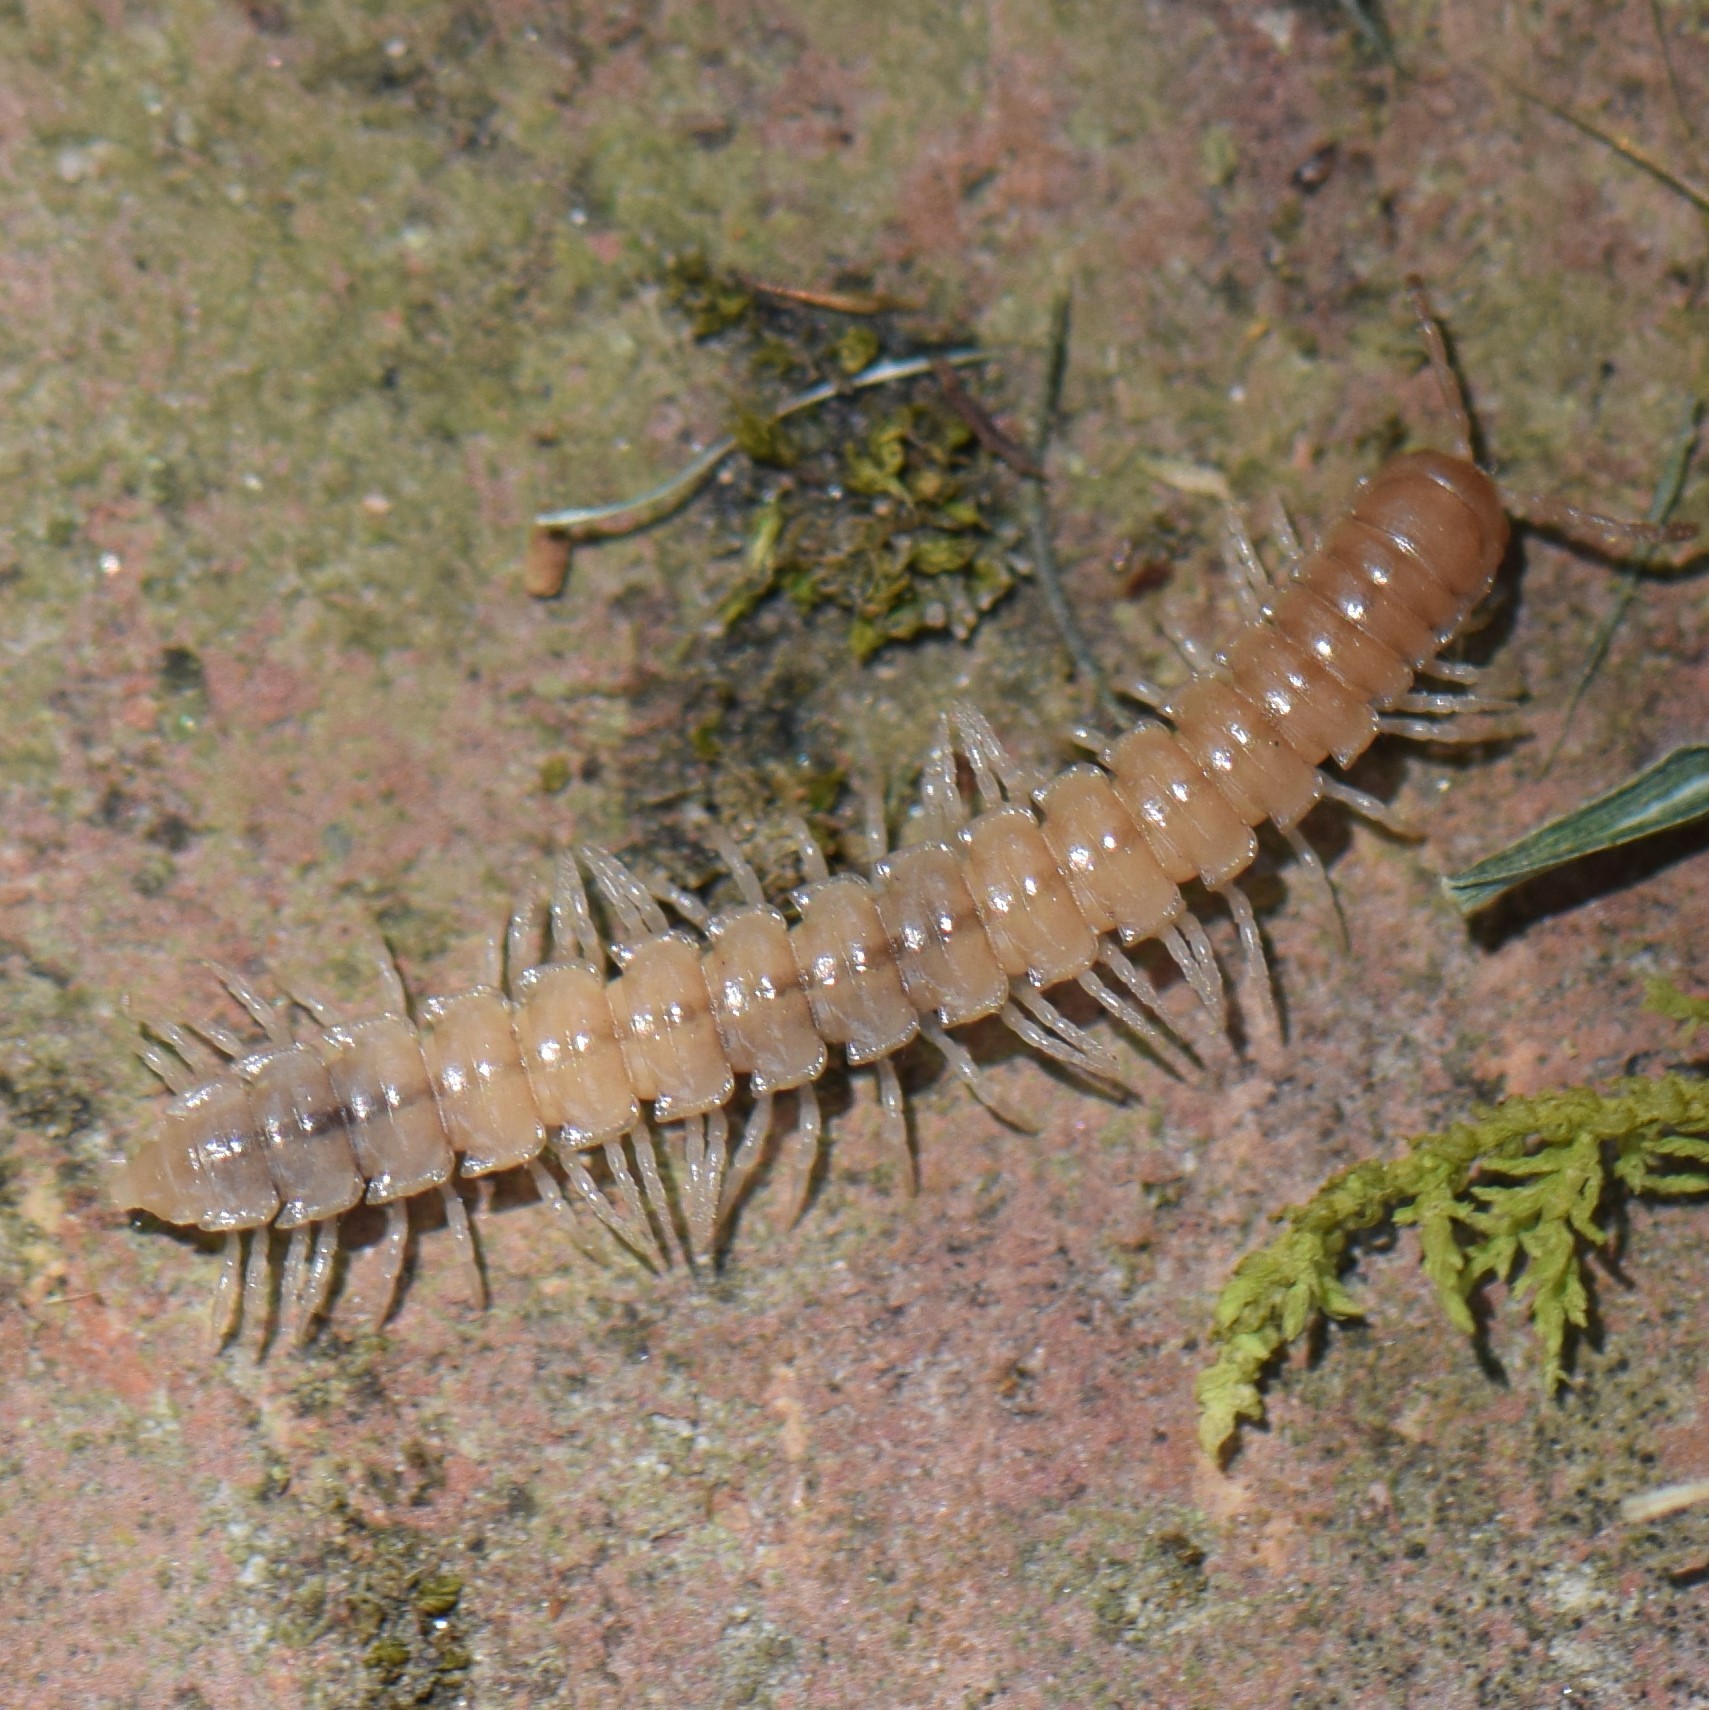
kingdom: Animalia
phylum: Arthropoda
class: Diplopoda
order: Polydesmida
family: Paradoxosomatidae
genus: Oxidus
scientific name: Oxidus gracilis
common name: Greenhouse millipede
